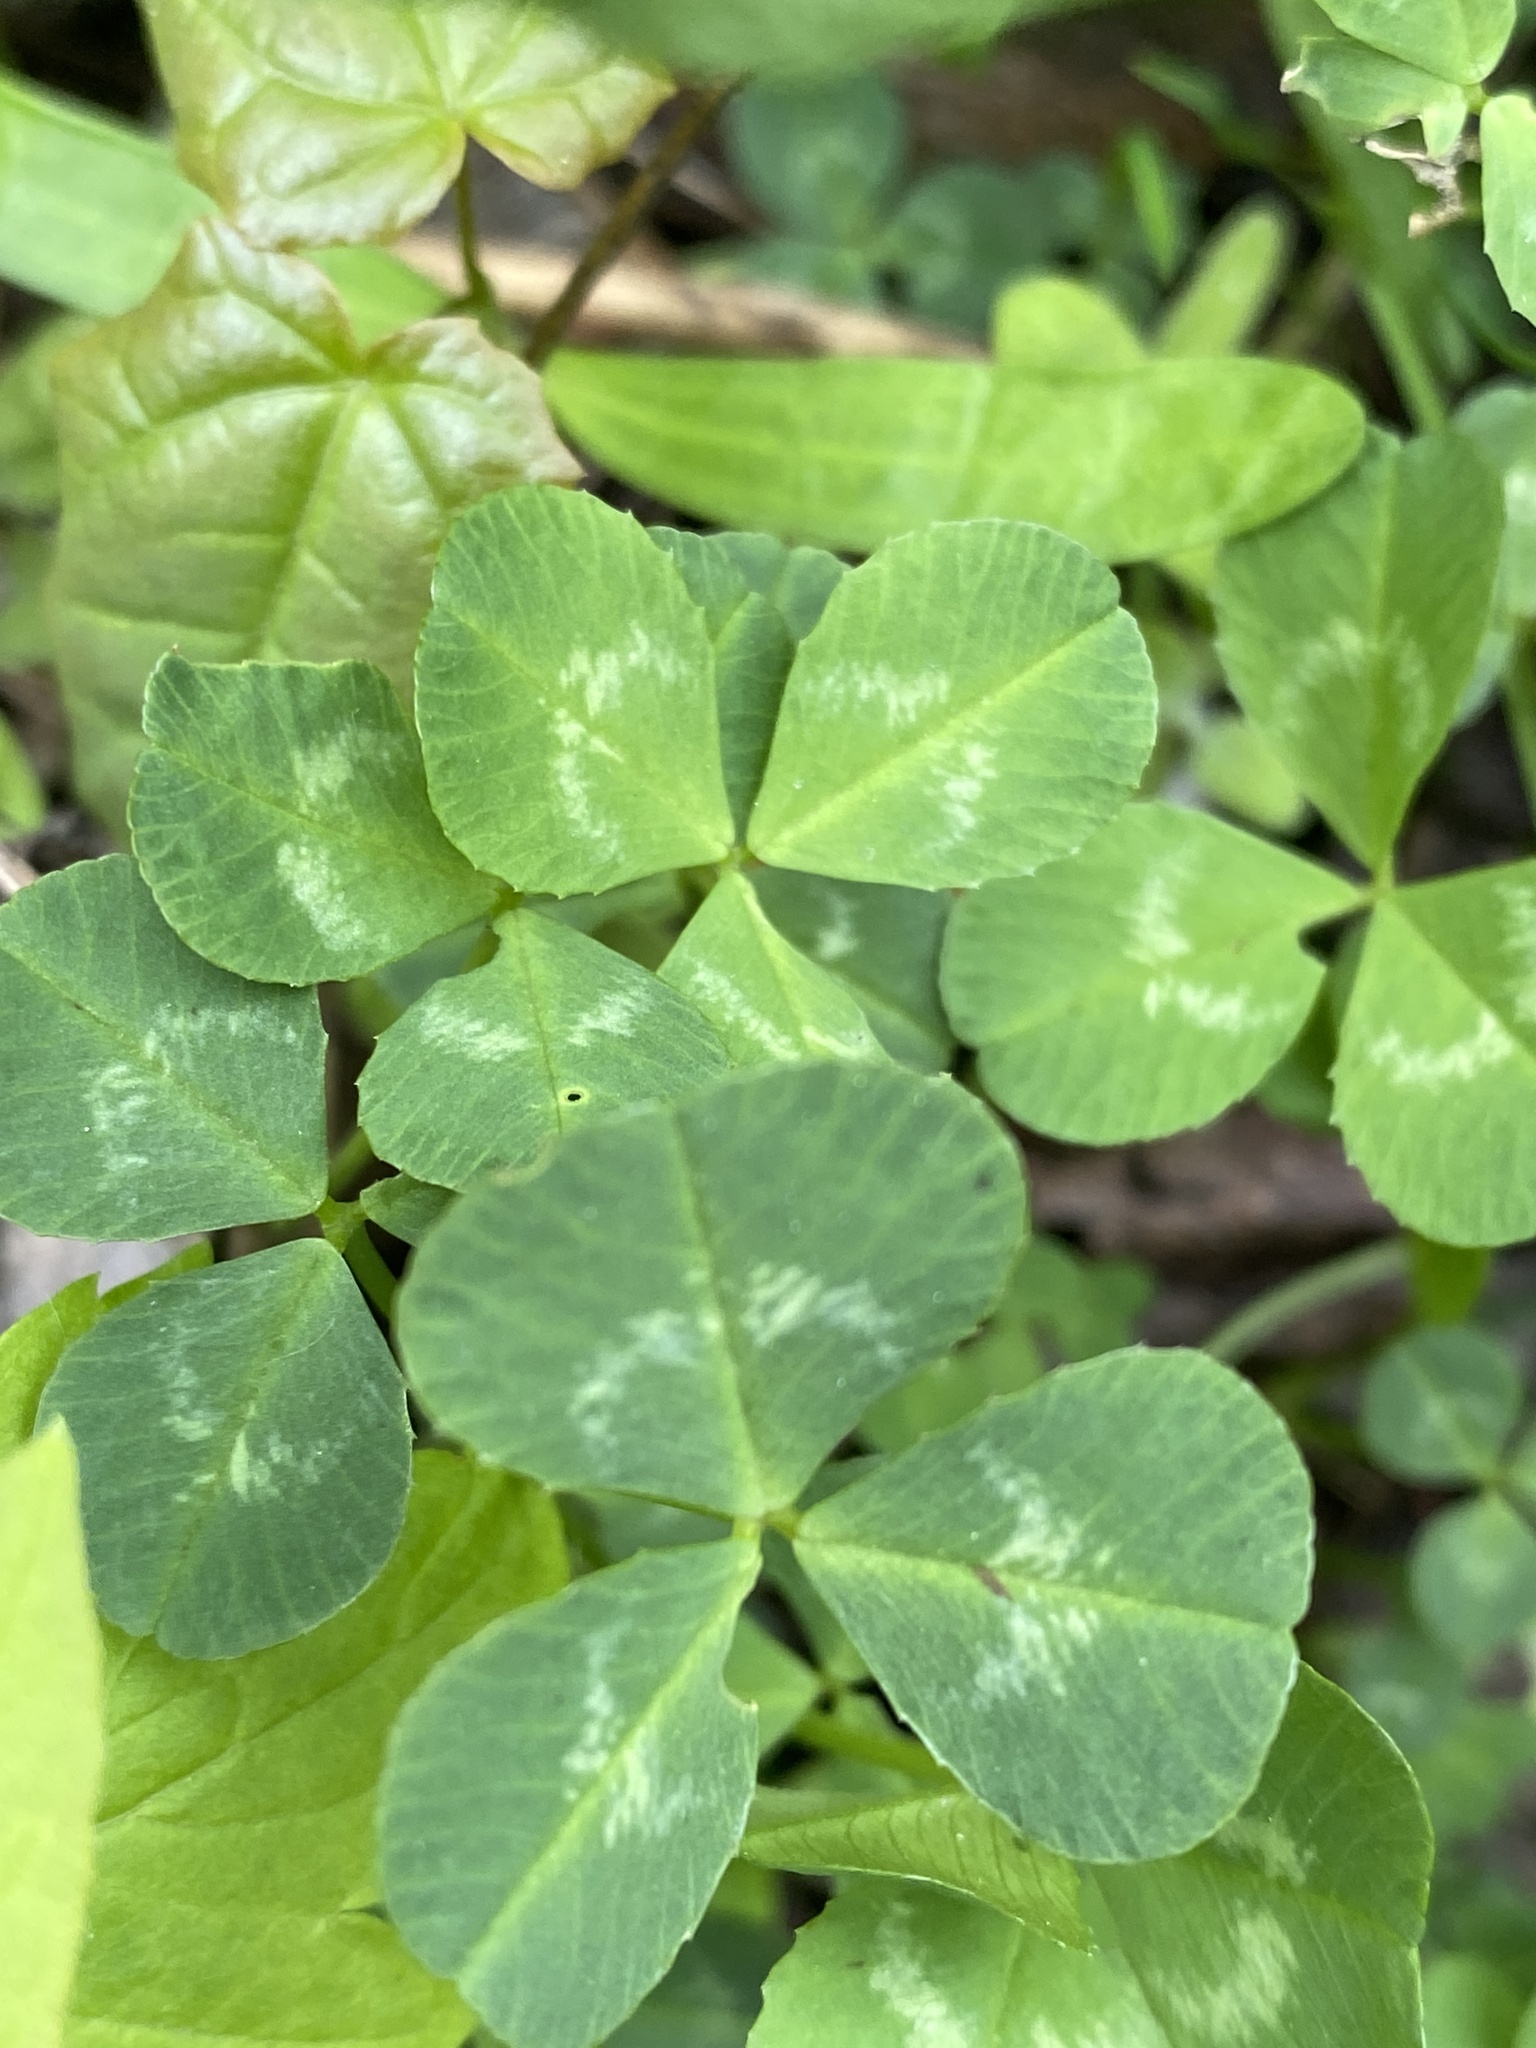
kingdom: Plantae
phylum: Tracheophyta
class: Magnoliopsida
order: Fabales
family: Fabaceae
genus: Trifolium
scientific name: Trifolium repens
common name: White clover
